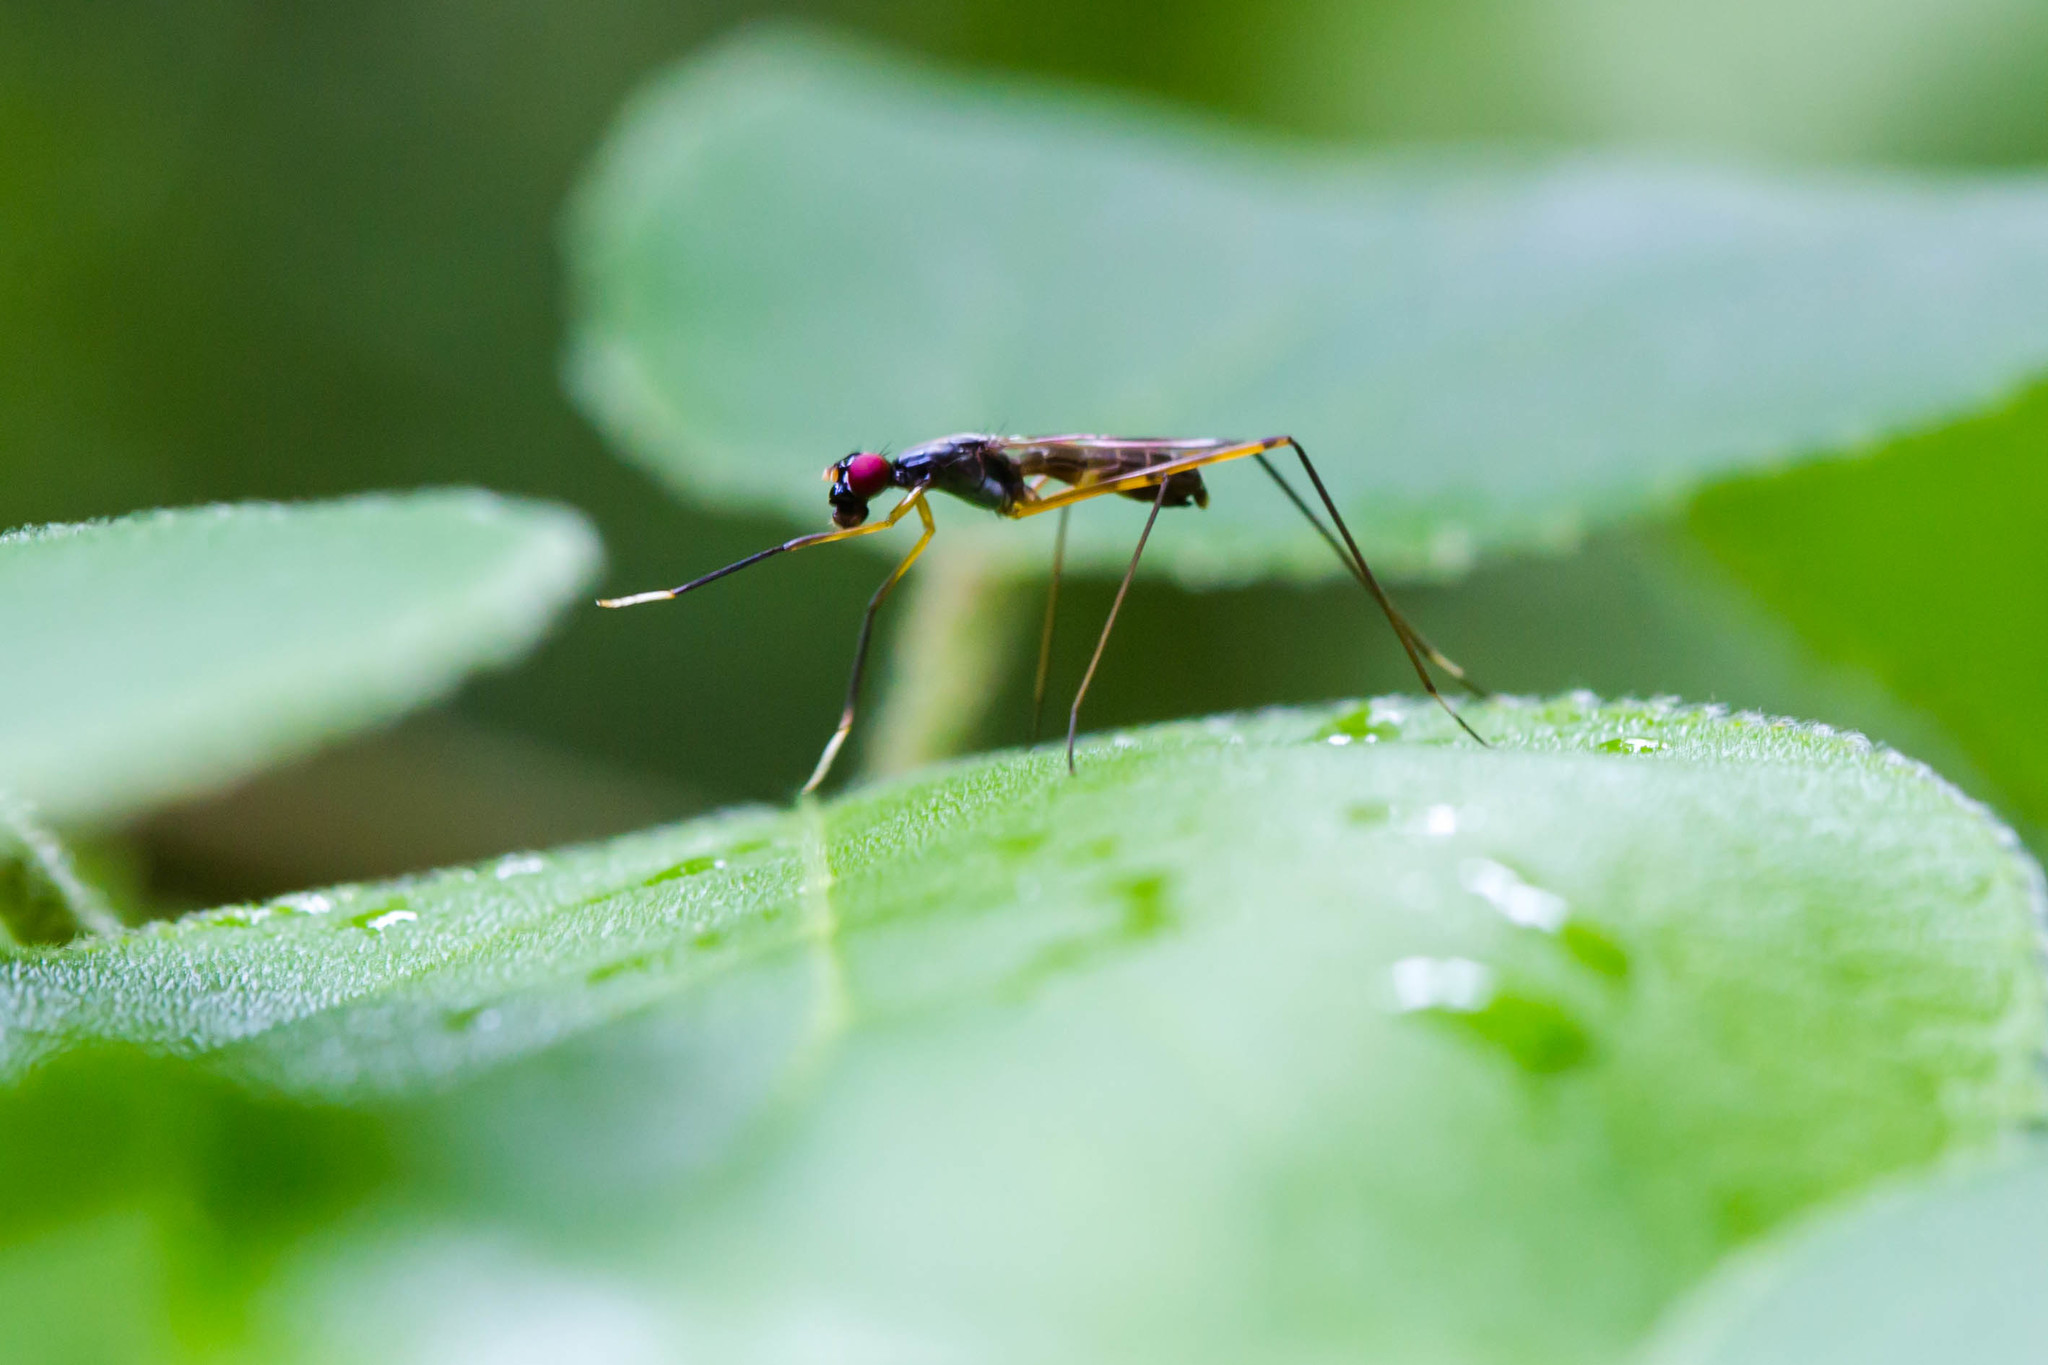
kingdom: Animalia
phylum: Arthropoda
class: Insecta
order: Diptera
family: Micropezidae
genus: Rainieria
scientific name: Rainieria antennaepes
